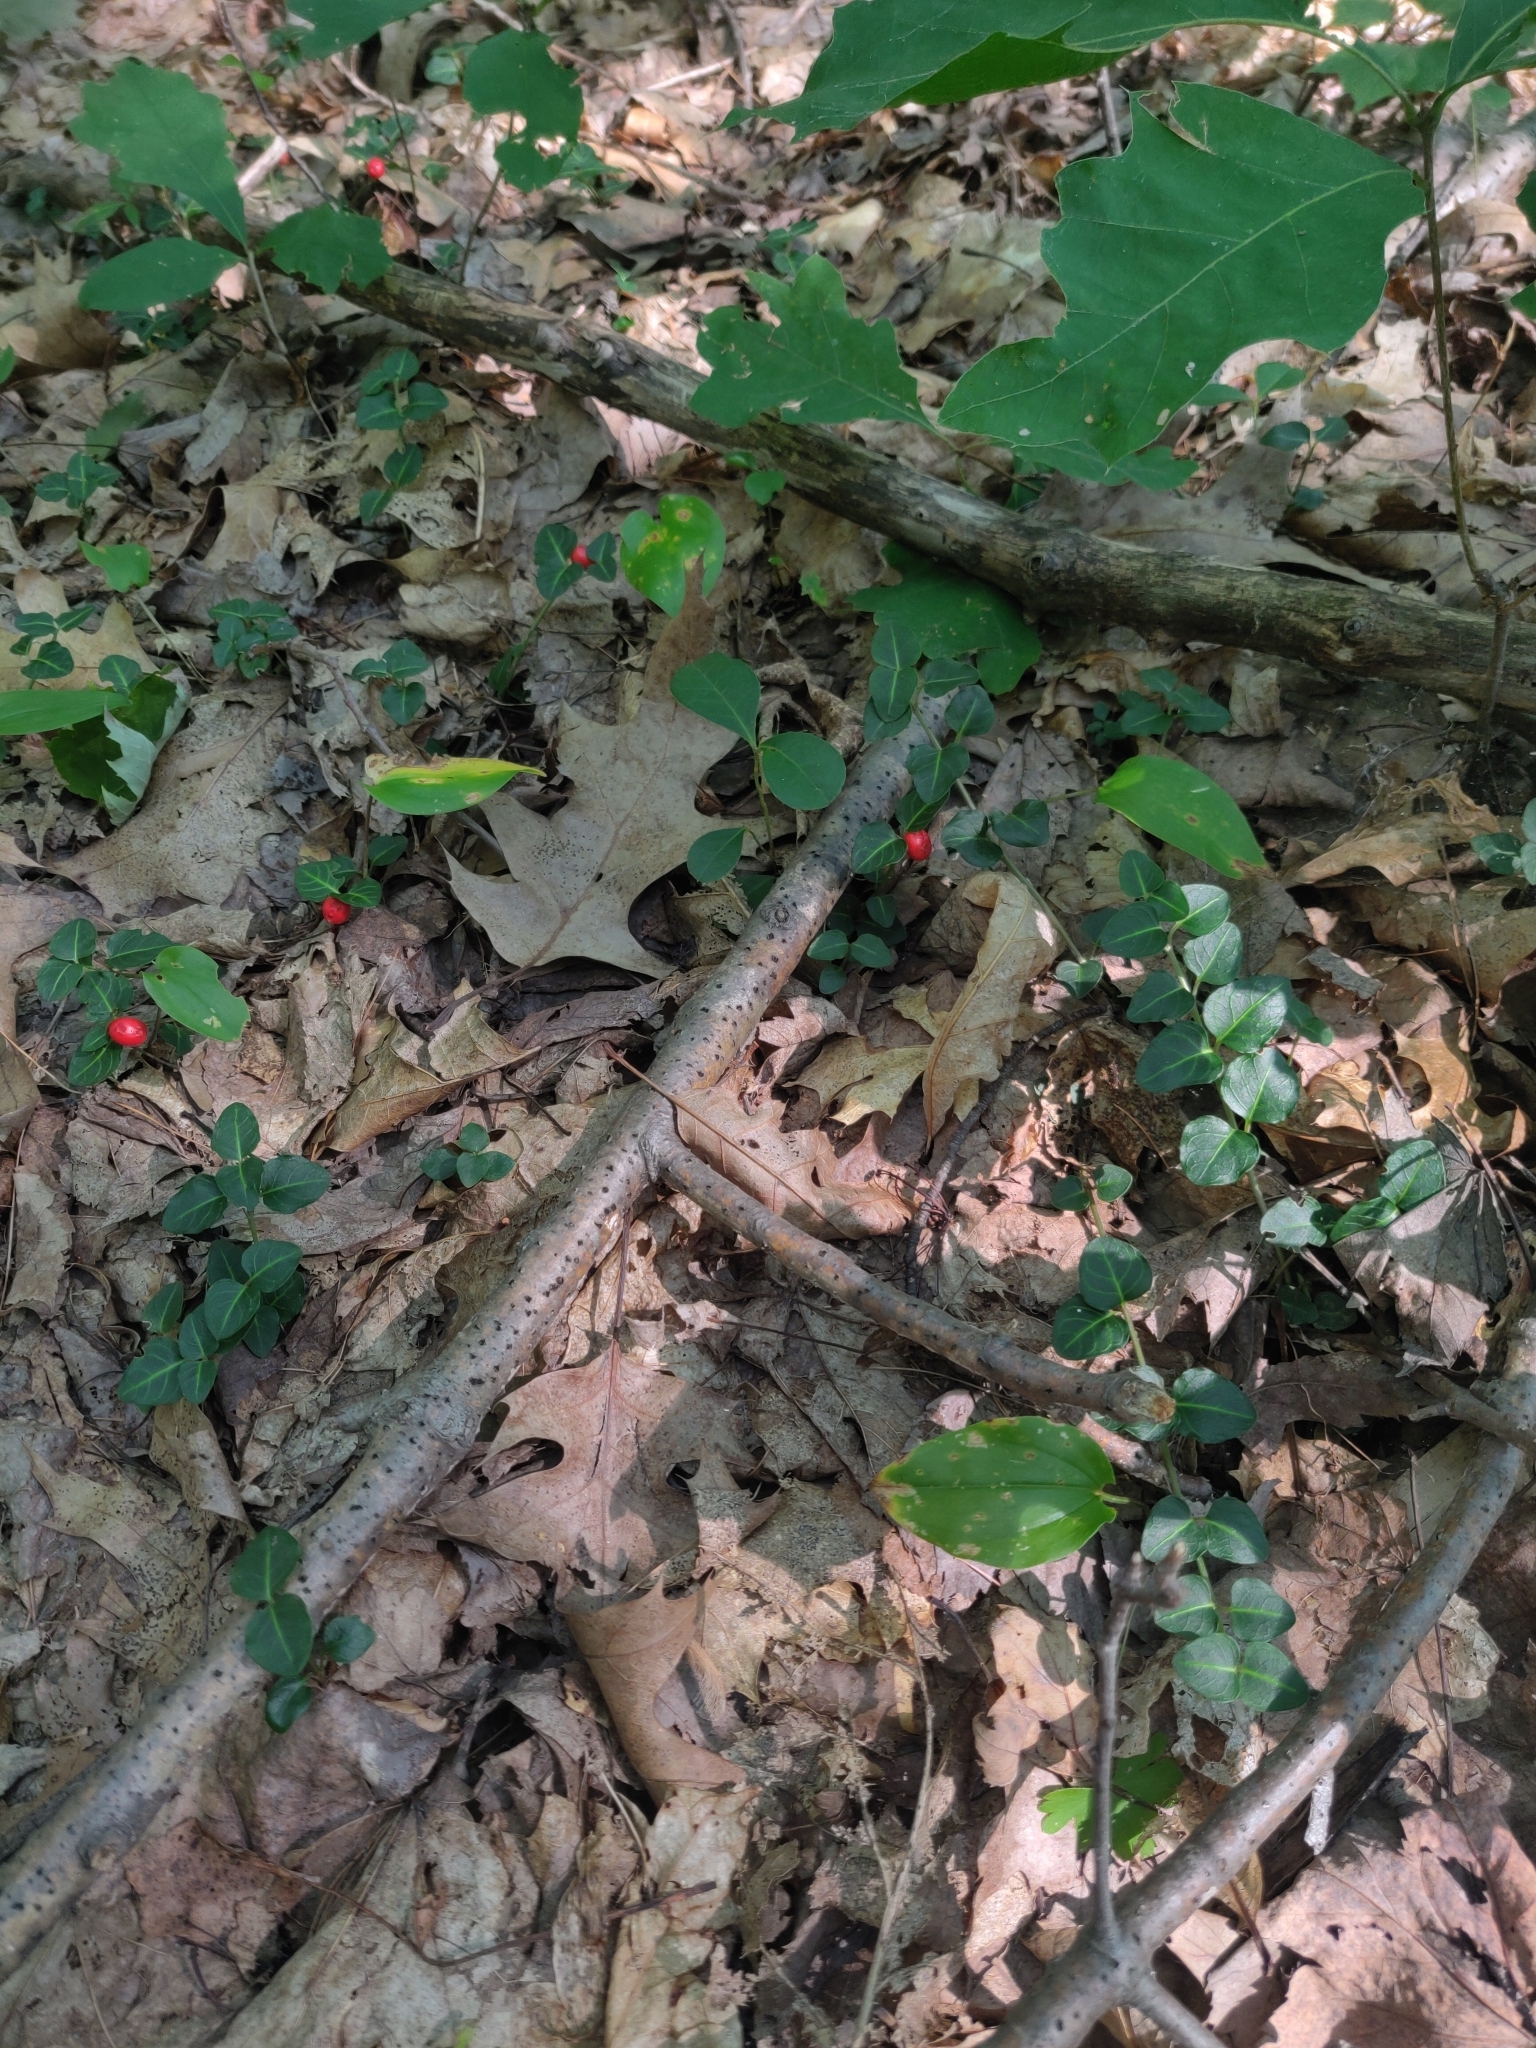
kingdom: Plantae
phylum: Tracheophyta
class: Magnoliopsida
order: Gentianales
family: Rubiaceae
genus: Mitchella
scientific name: Mitchella repens
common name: Partridge-berry
